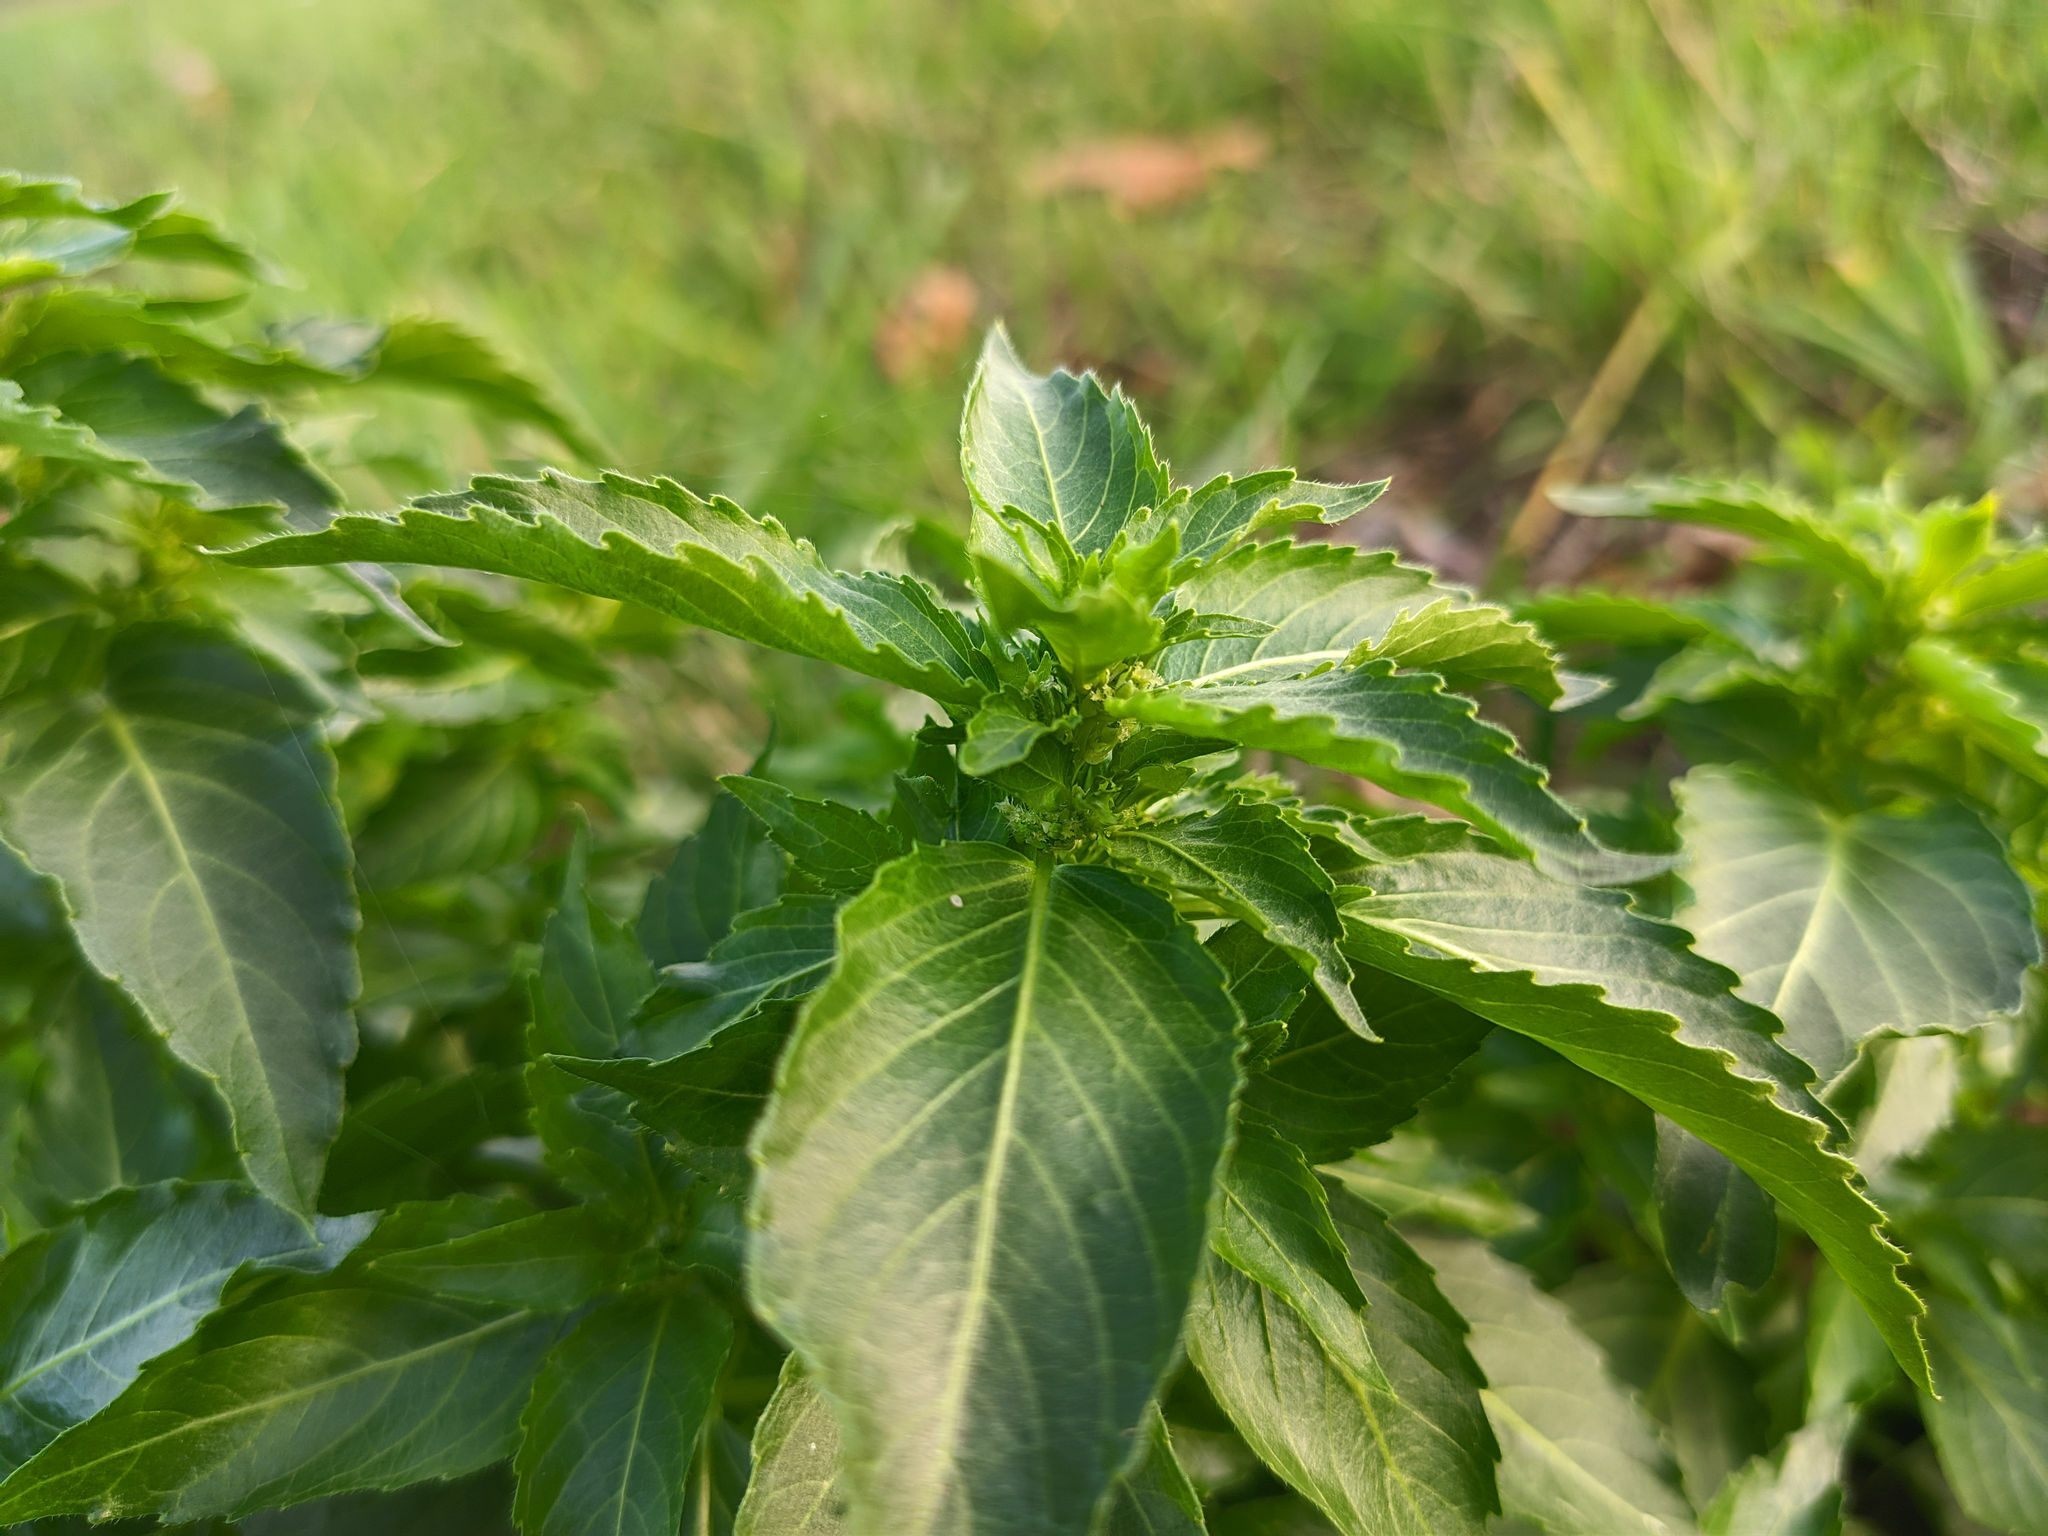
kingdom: Plantae
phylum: Tracheophyta
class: Magnoliopsida
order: Malpighiales
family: Euphorbiaceae
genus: Mercurialis
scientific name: Mercurialis annua
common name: Annual mercury
